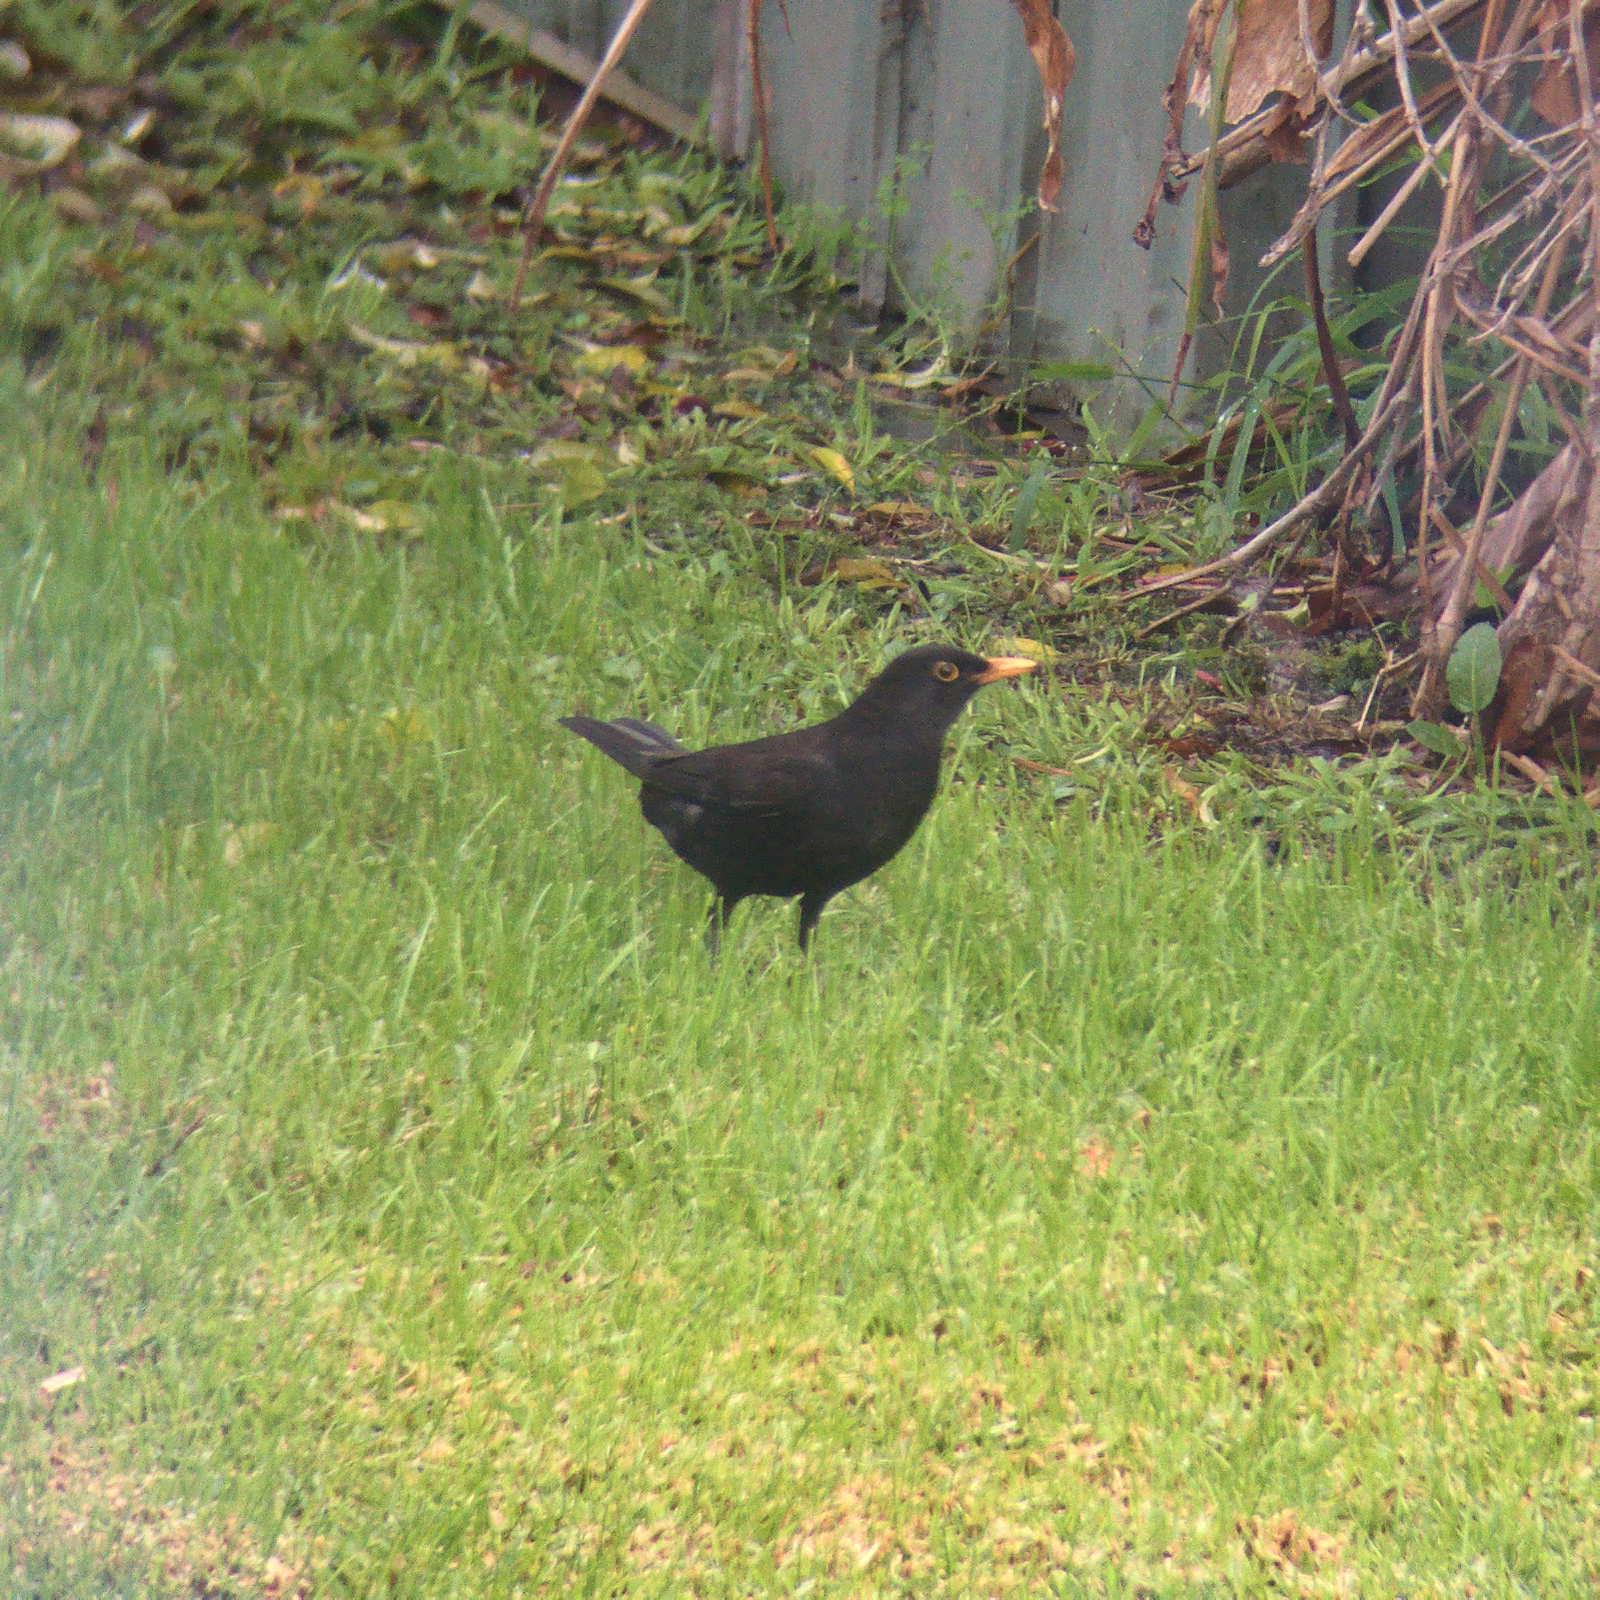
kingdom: Animalia
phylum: Chordata
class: Aves
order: Passeriformes
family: Turdidae
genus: Turdus
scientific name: Turdus merula
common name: Common blackbird
